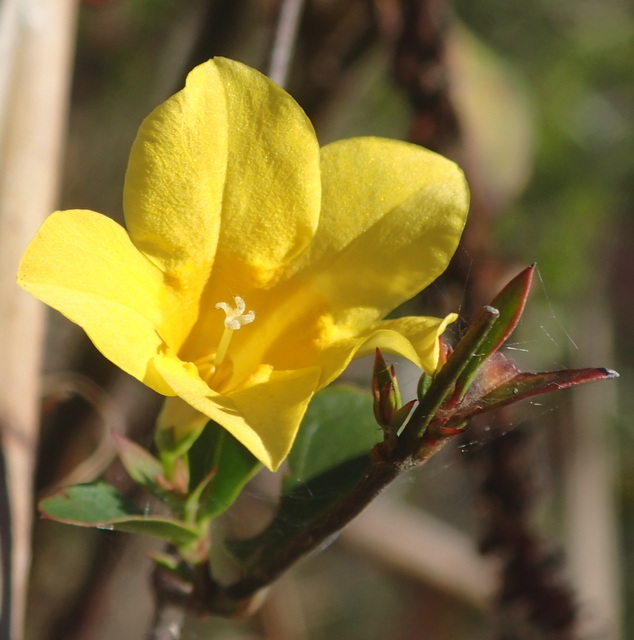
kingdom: Plantae
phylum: Tracheophyta
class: Magnoliopsida
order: Gentianales
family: Gelsemiaceae
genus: Gelsemium
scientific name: Gelsemium sempervirens
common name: Carolina-jasmine
